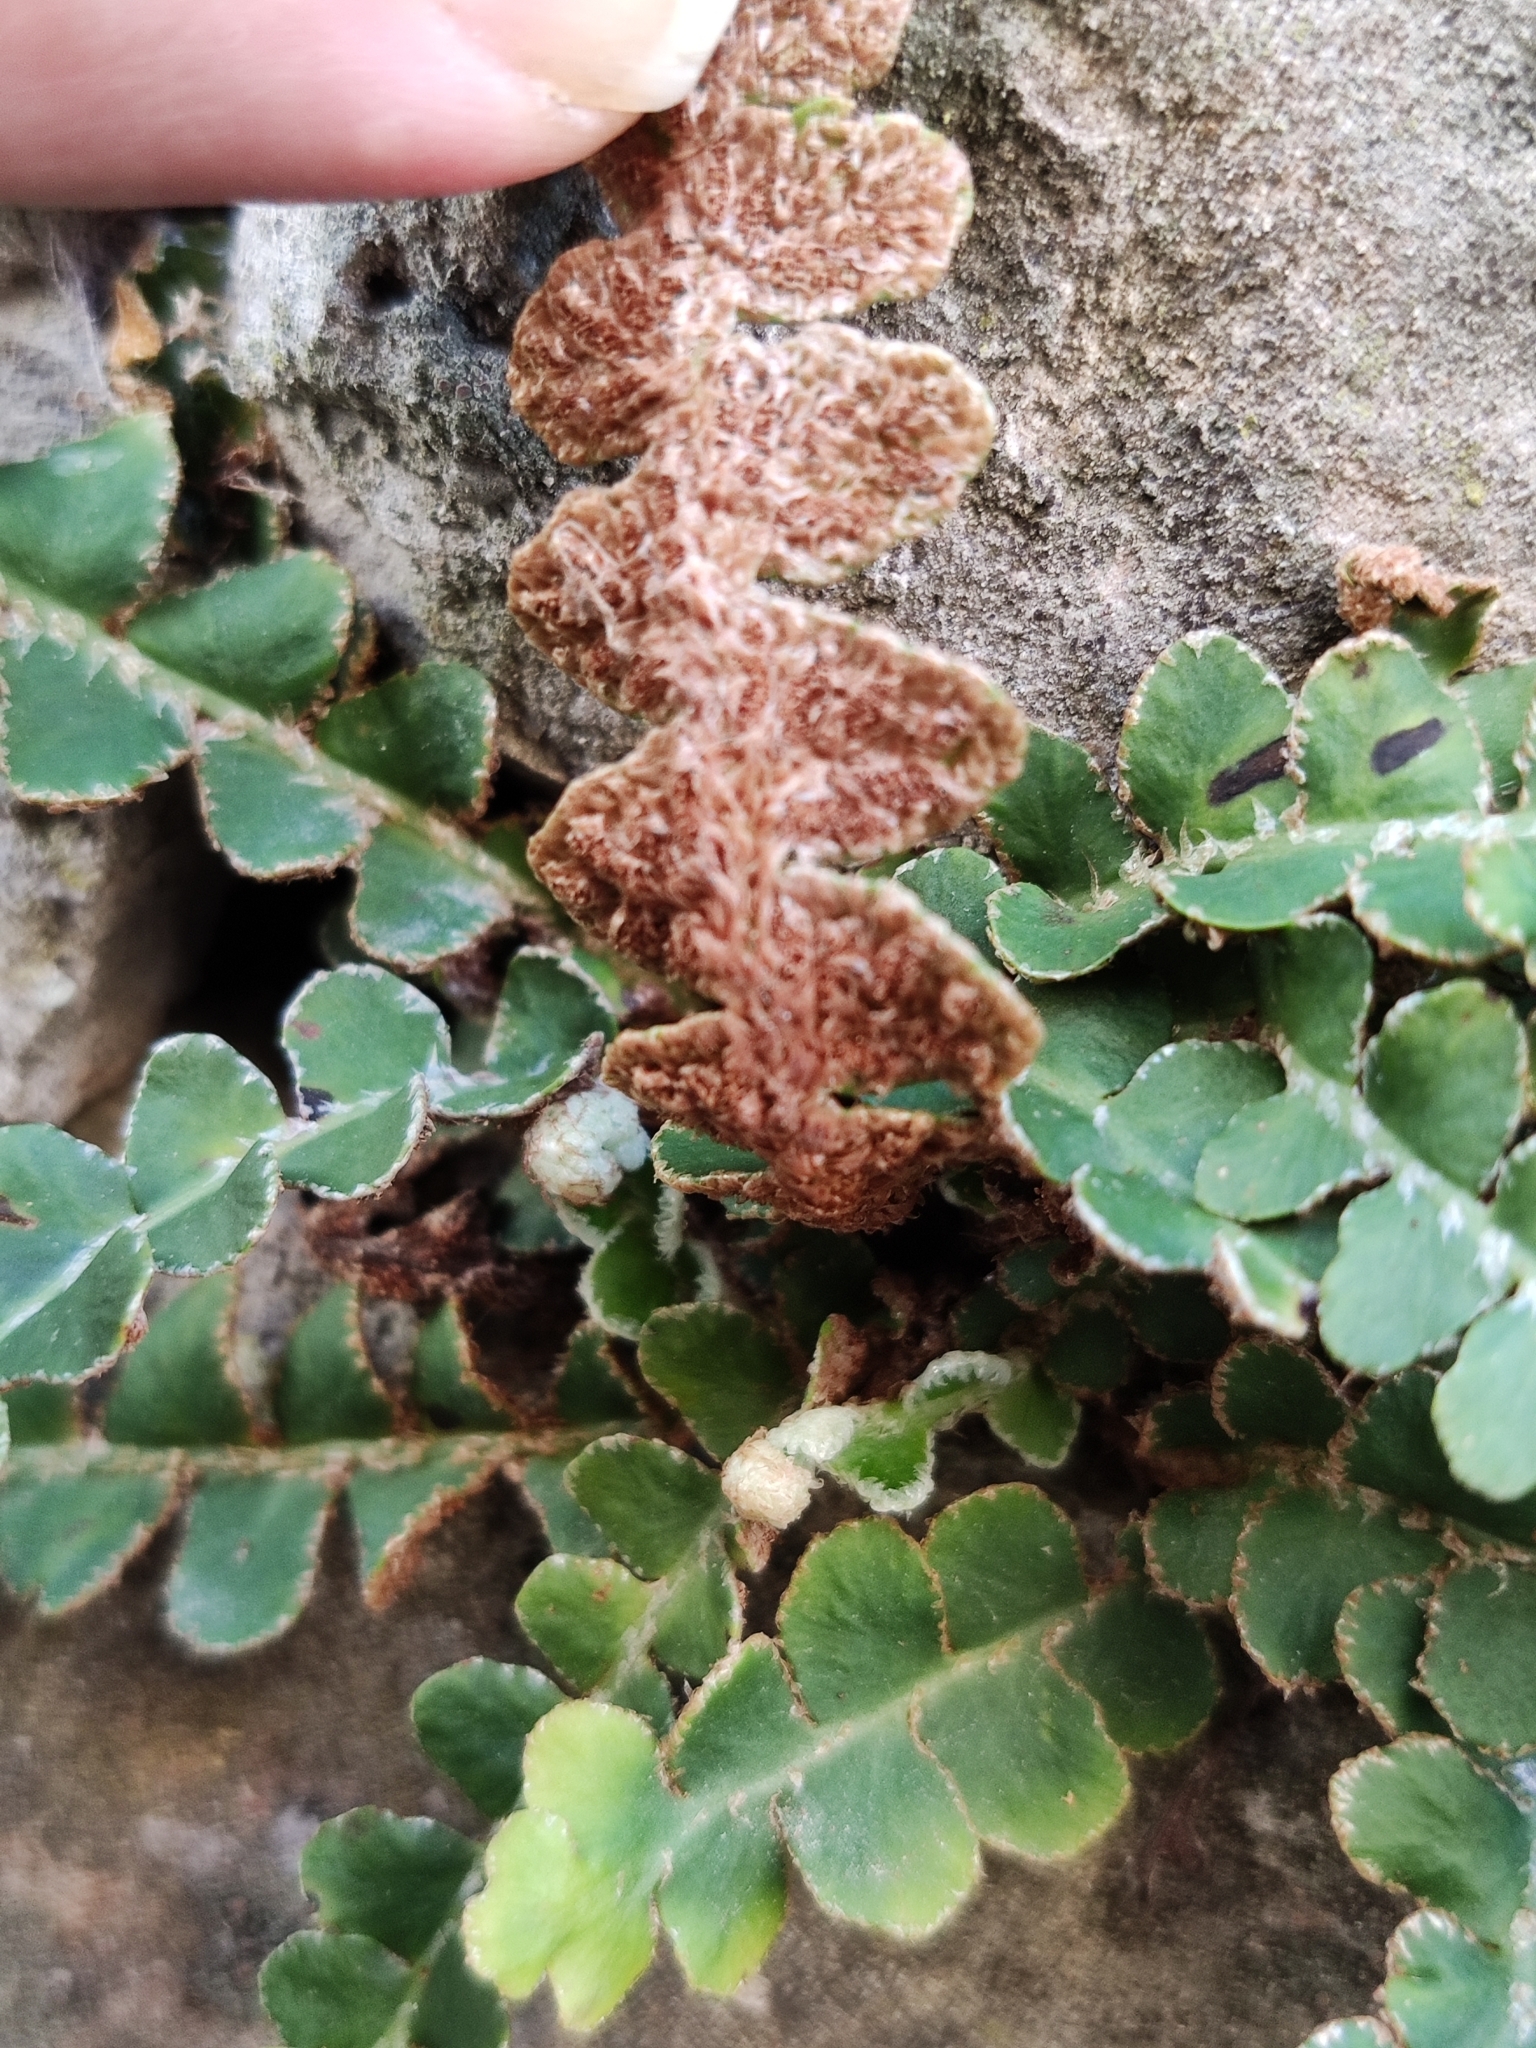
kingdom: Plantae
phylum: Tracheophyta
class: Polypodiopsida
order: Polypodiales
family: Aspleniaceae
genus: Asplenium
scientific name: Asplenium ceterach
